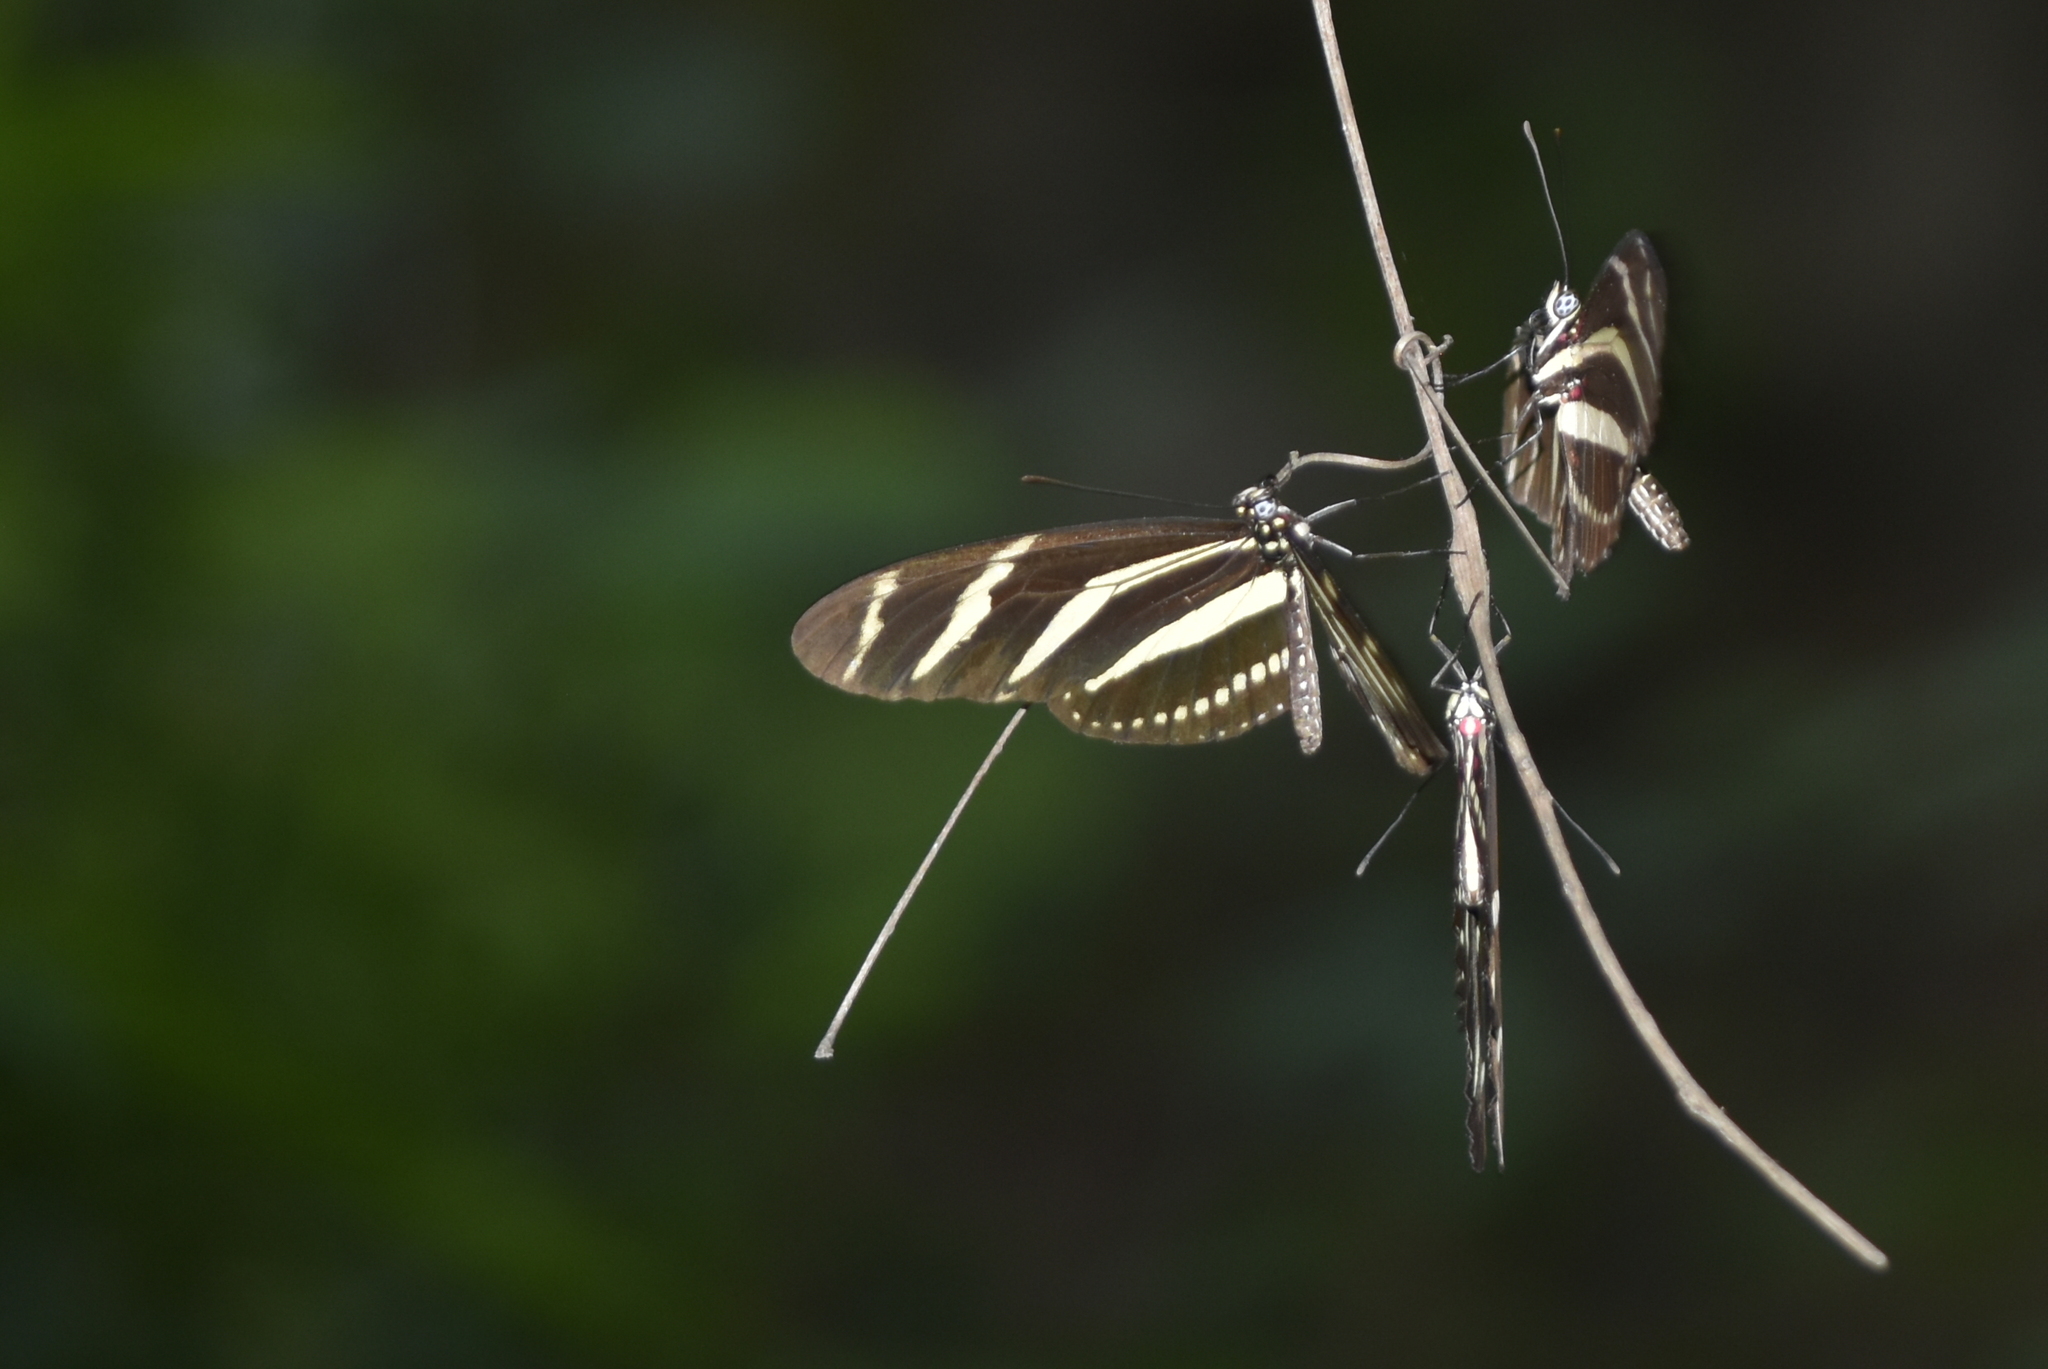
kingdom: Animalia
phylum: Arthropoda
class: Insecta
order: Lepidoptera
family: Nymphalidae
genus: Heliconius
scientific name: Heliconius charithonia
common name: Zebra long wing
